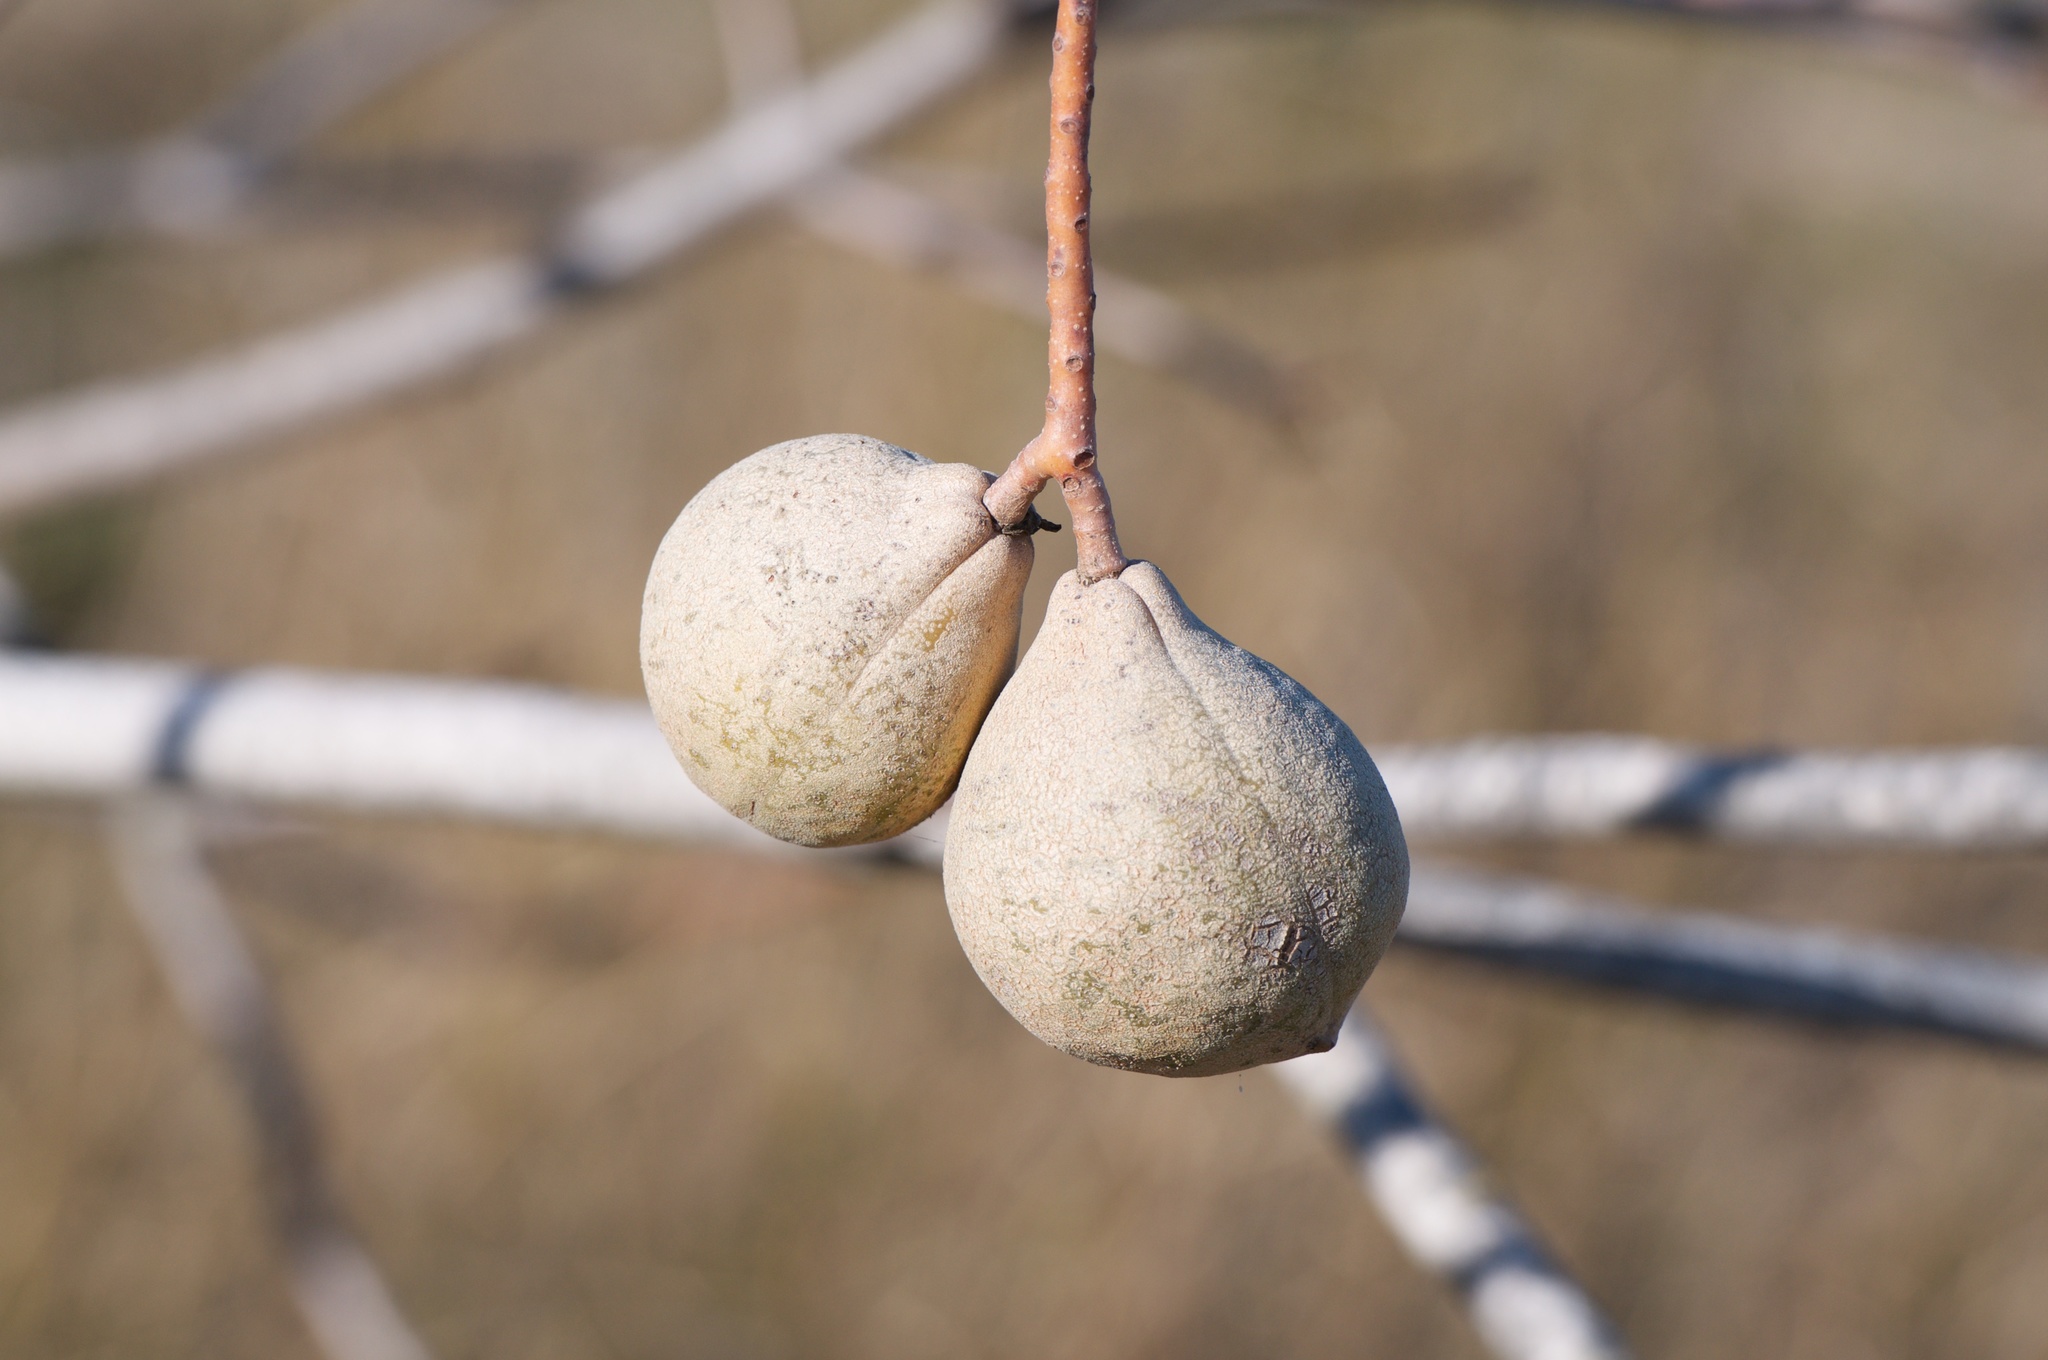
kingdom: Plantae
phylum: Tracheophyta
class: Magnoliopsida
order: Sapindales
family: Sapindaceae
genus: Aesculus
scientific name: Aesculus californica
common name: California buckeye
